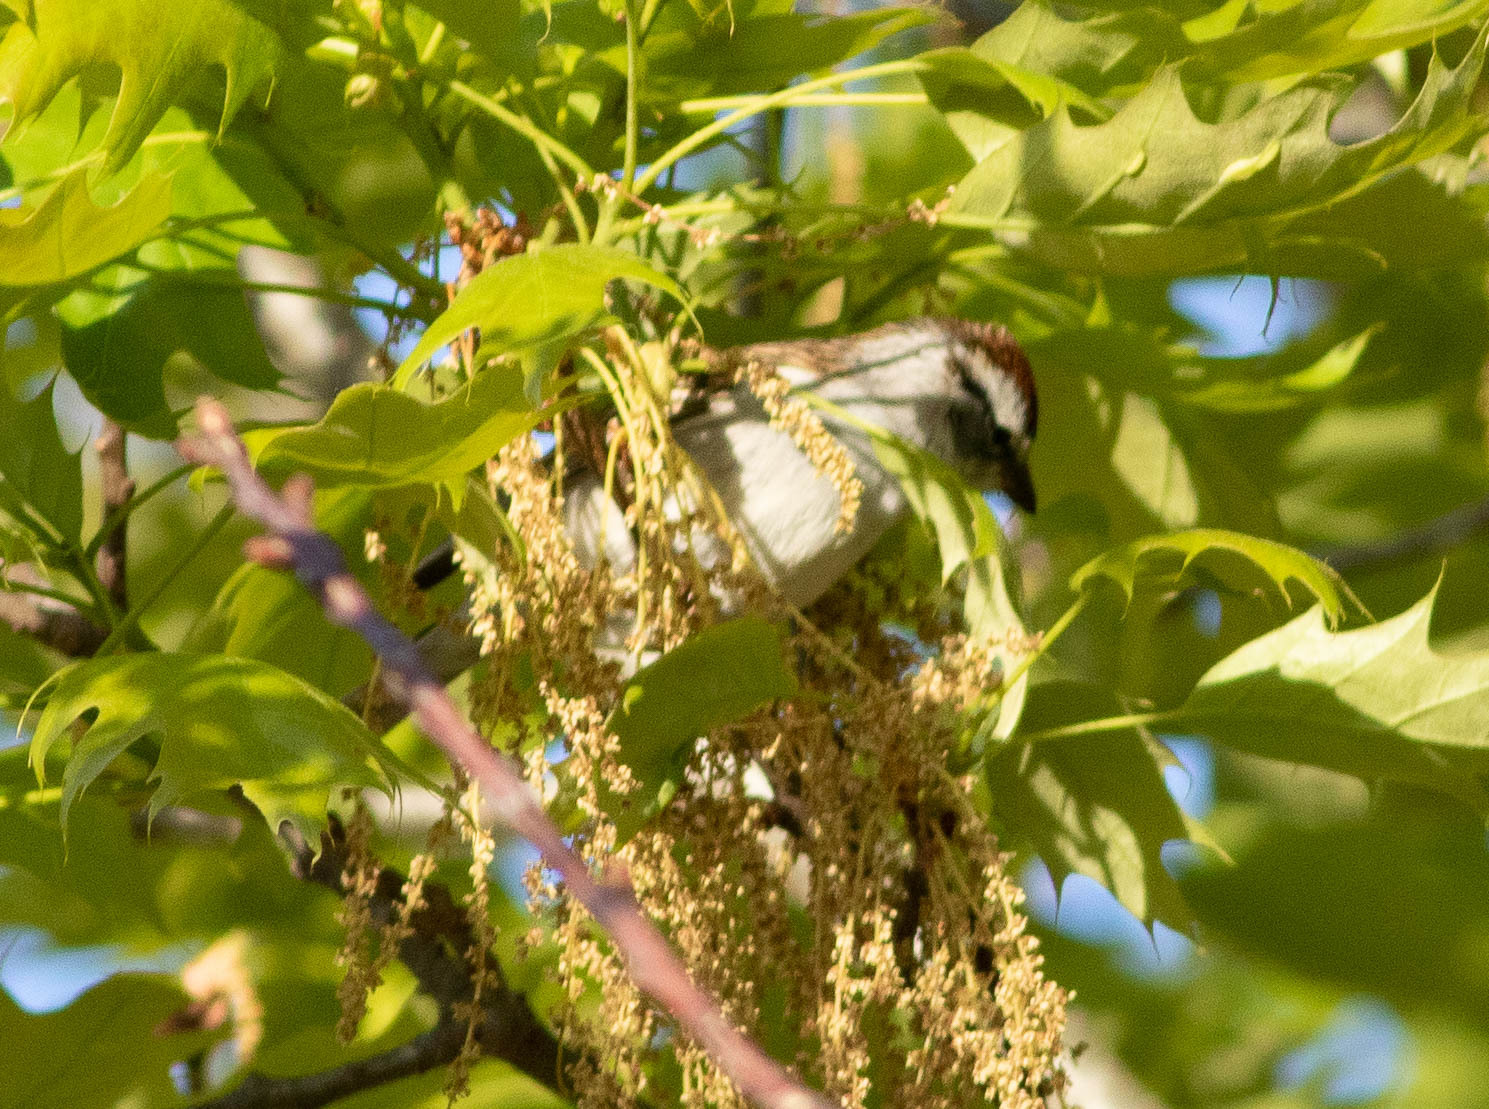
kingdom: Animalia
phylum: Chordata
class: Aves
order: Passeriformes
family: Passerellidae
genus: Spizella
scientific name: Spizella passerina
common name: Chipping sparrow
